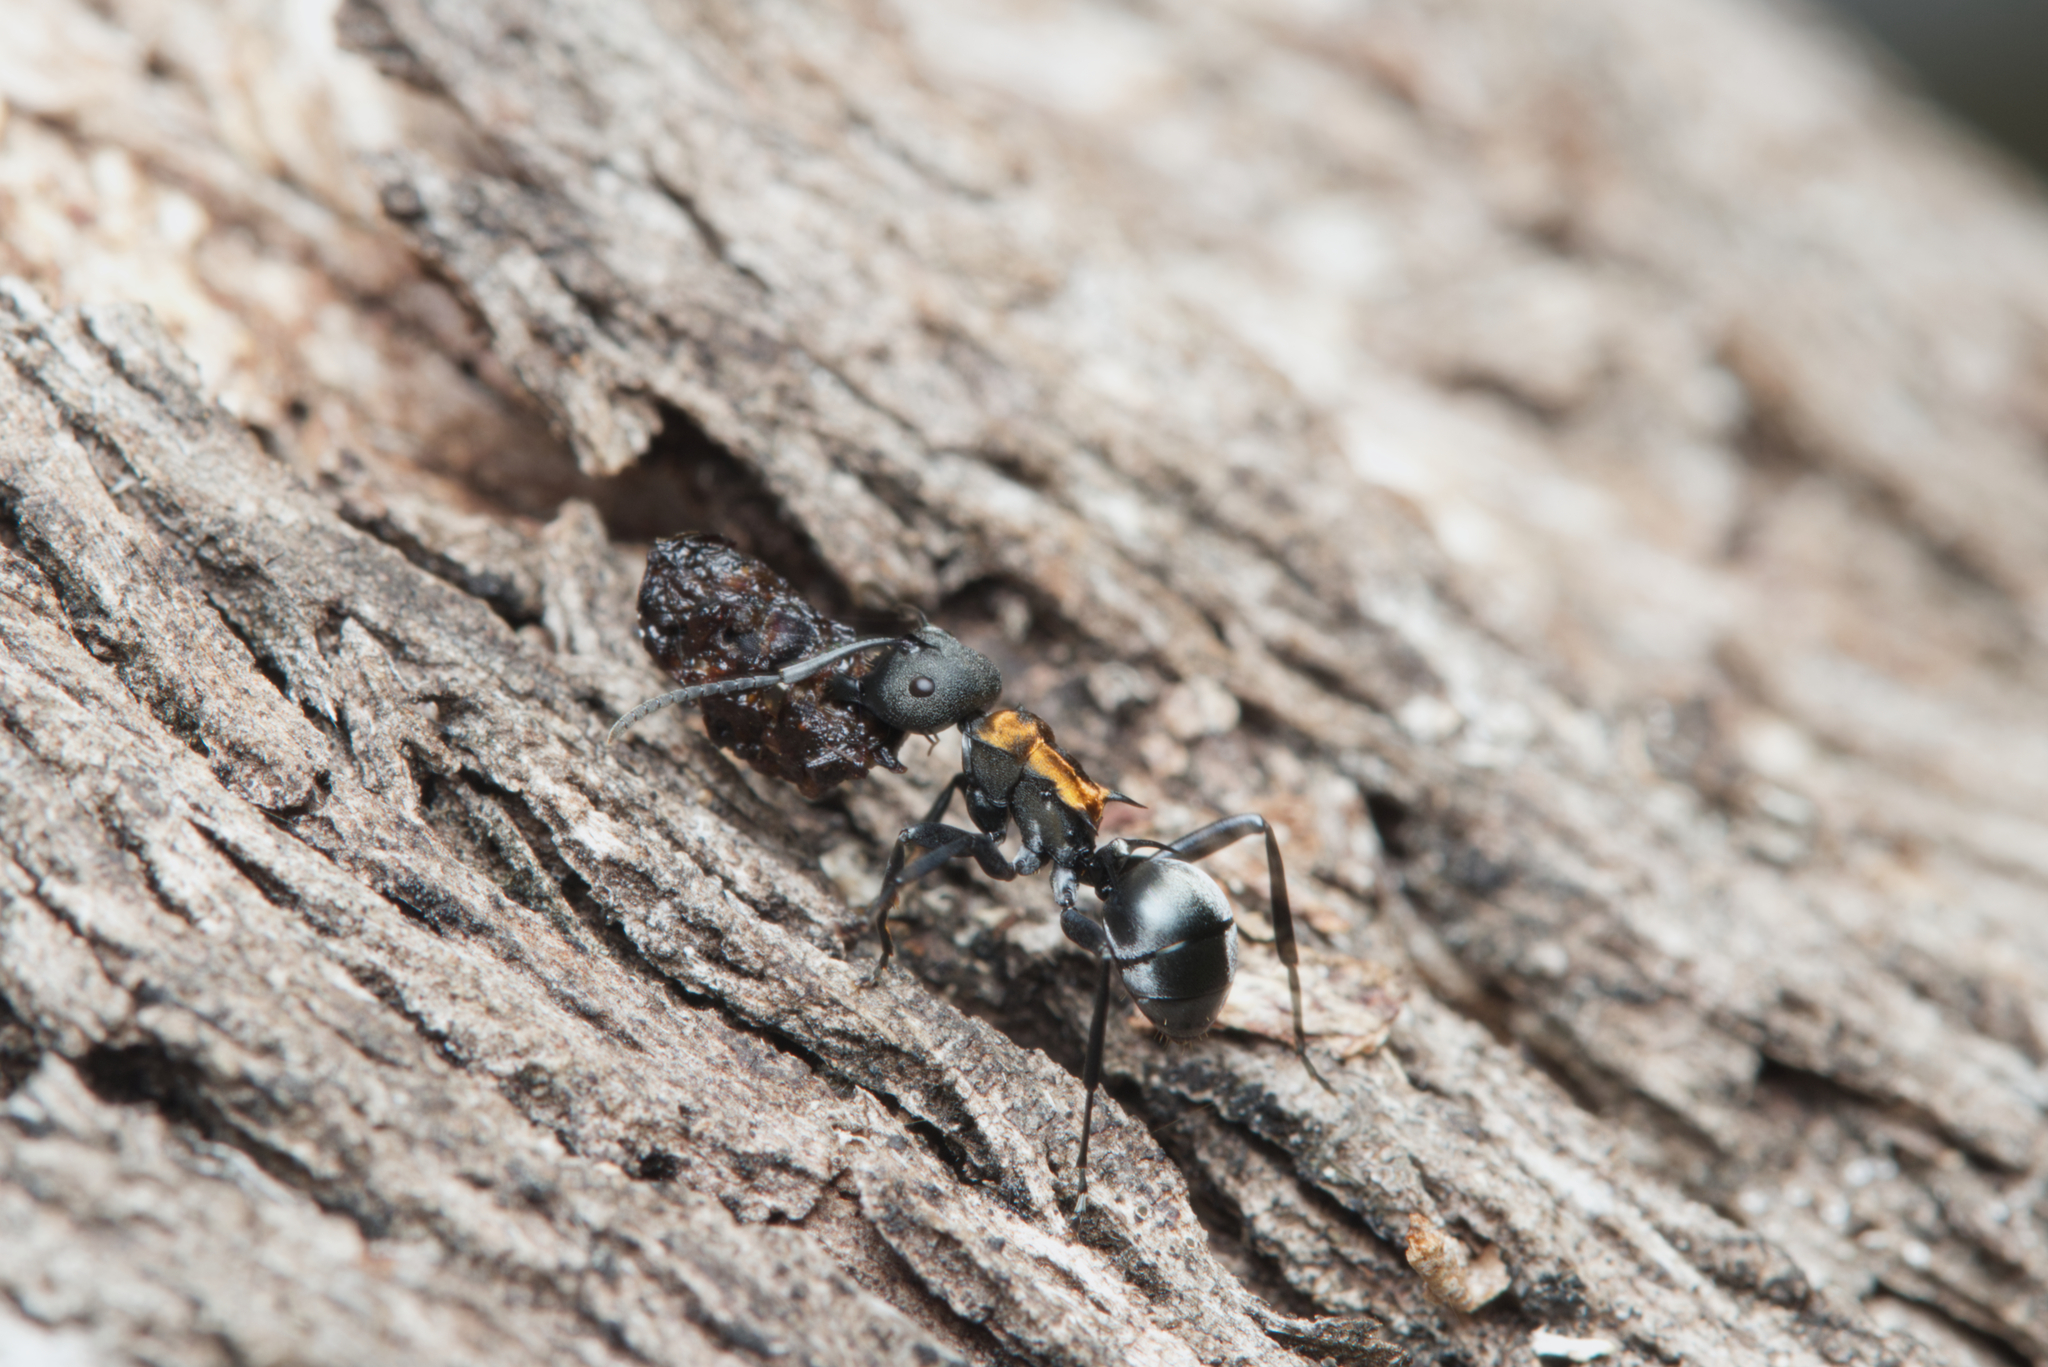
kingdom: Animalia
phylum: Arthropoda
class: Insecta
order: Hymenoptera
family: Formicidae
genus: Polyrhachis
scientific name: Polyrhachis ornata
